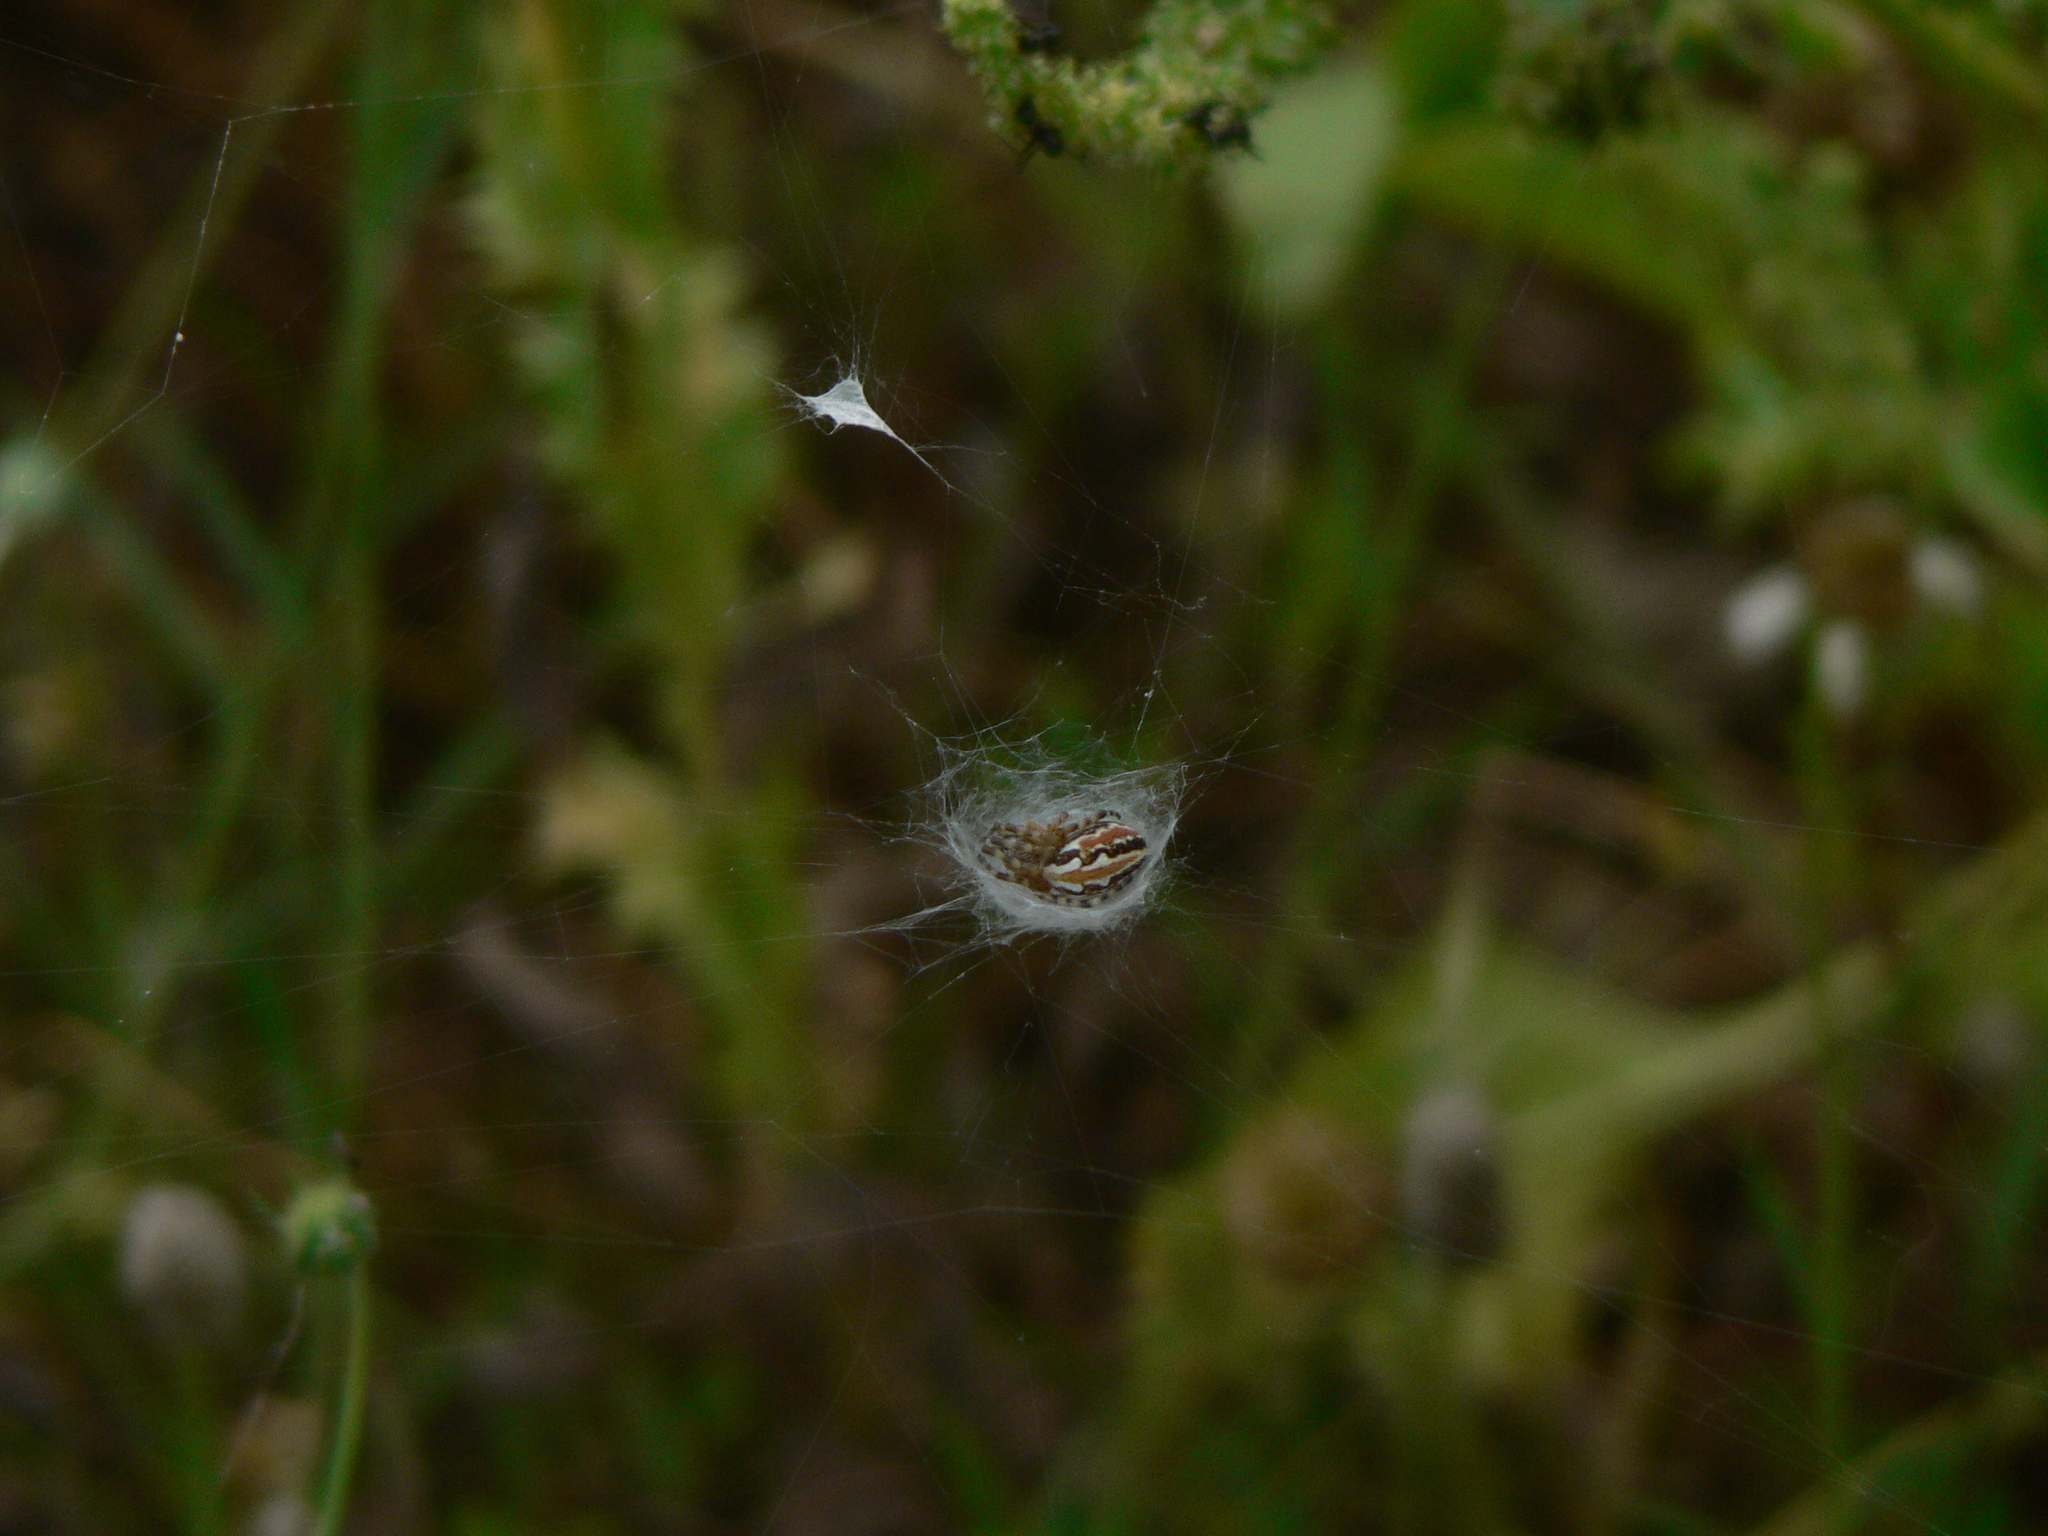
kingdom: Animalia
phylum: Arthropoda
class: Arachnida
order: Araneae
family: Araneidae
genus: Aculepeira
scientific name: Aculepeira armida
